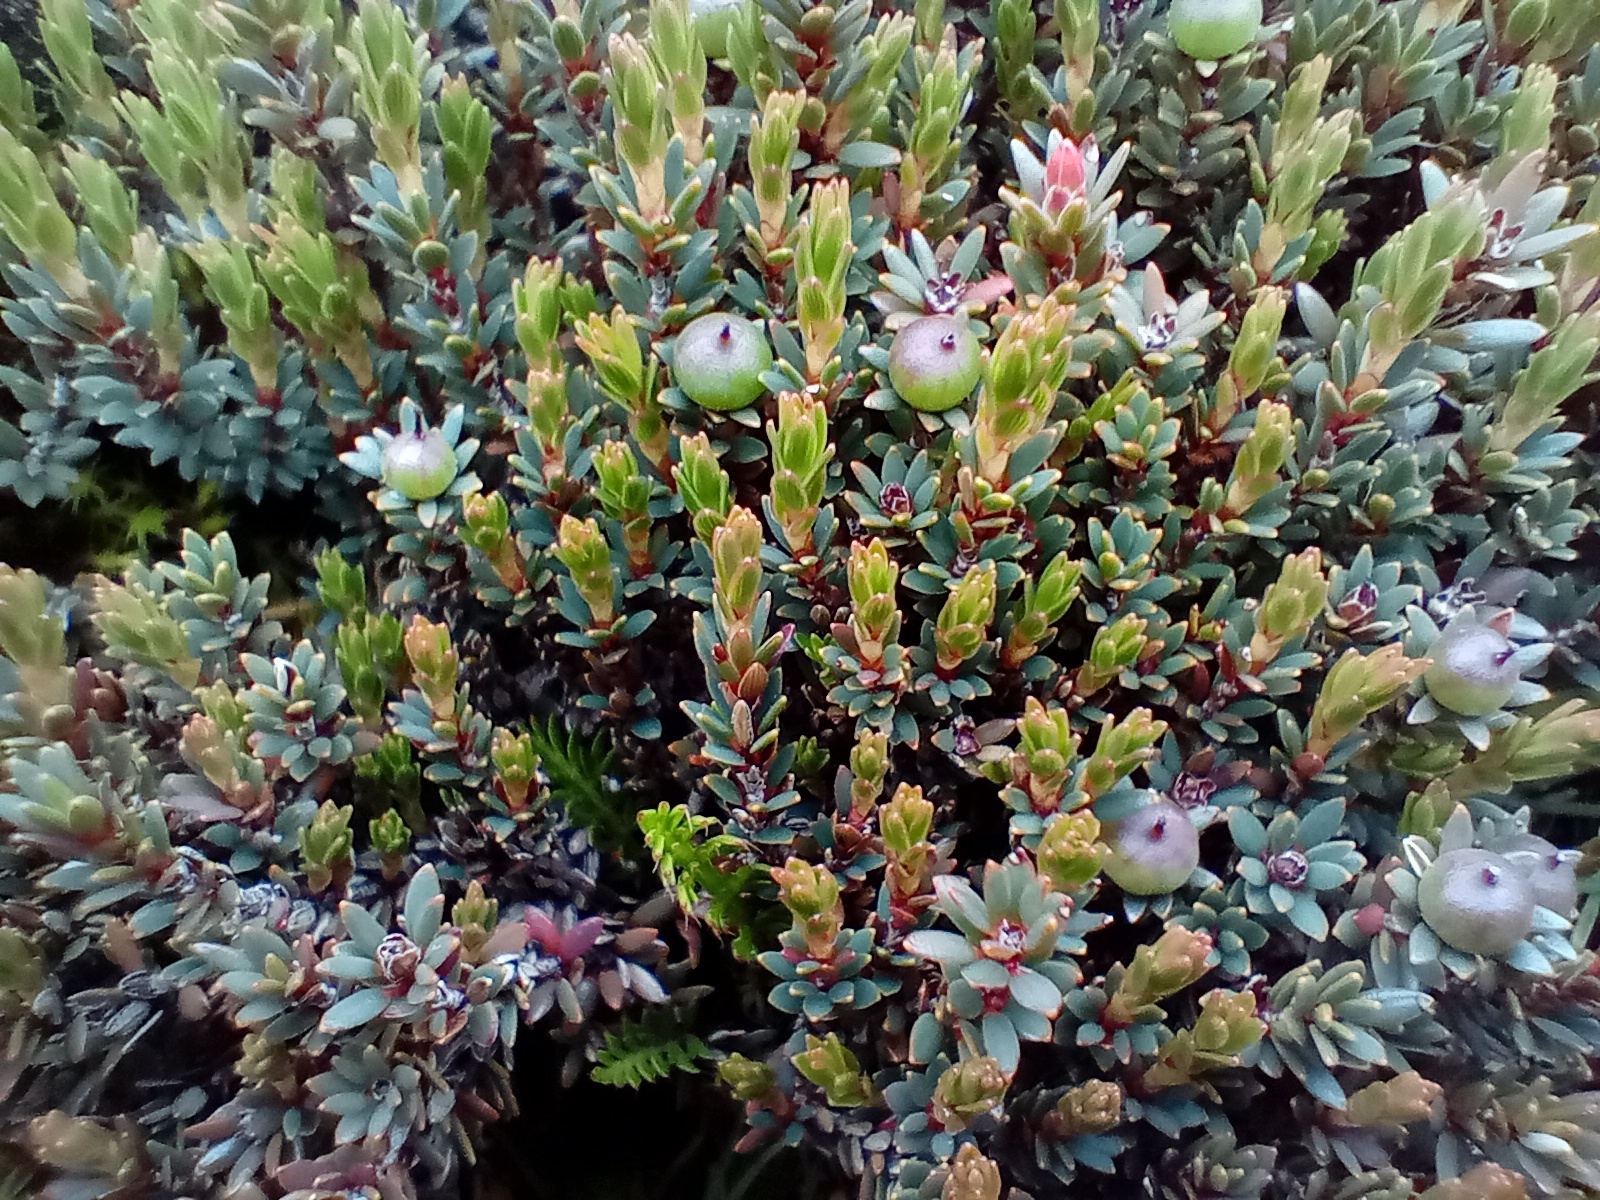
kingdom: Plantae
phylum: Tracheophyta
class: Magnoliopsida
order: Ericales
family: Ericaceae
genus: Pentachondra
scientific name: Pentachondra pumila
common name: Carpet-heath
